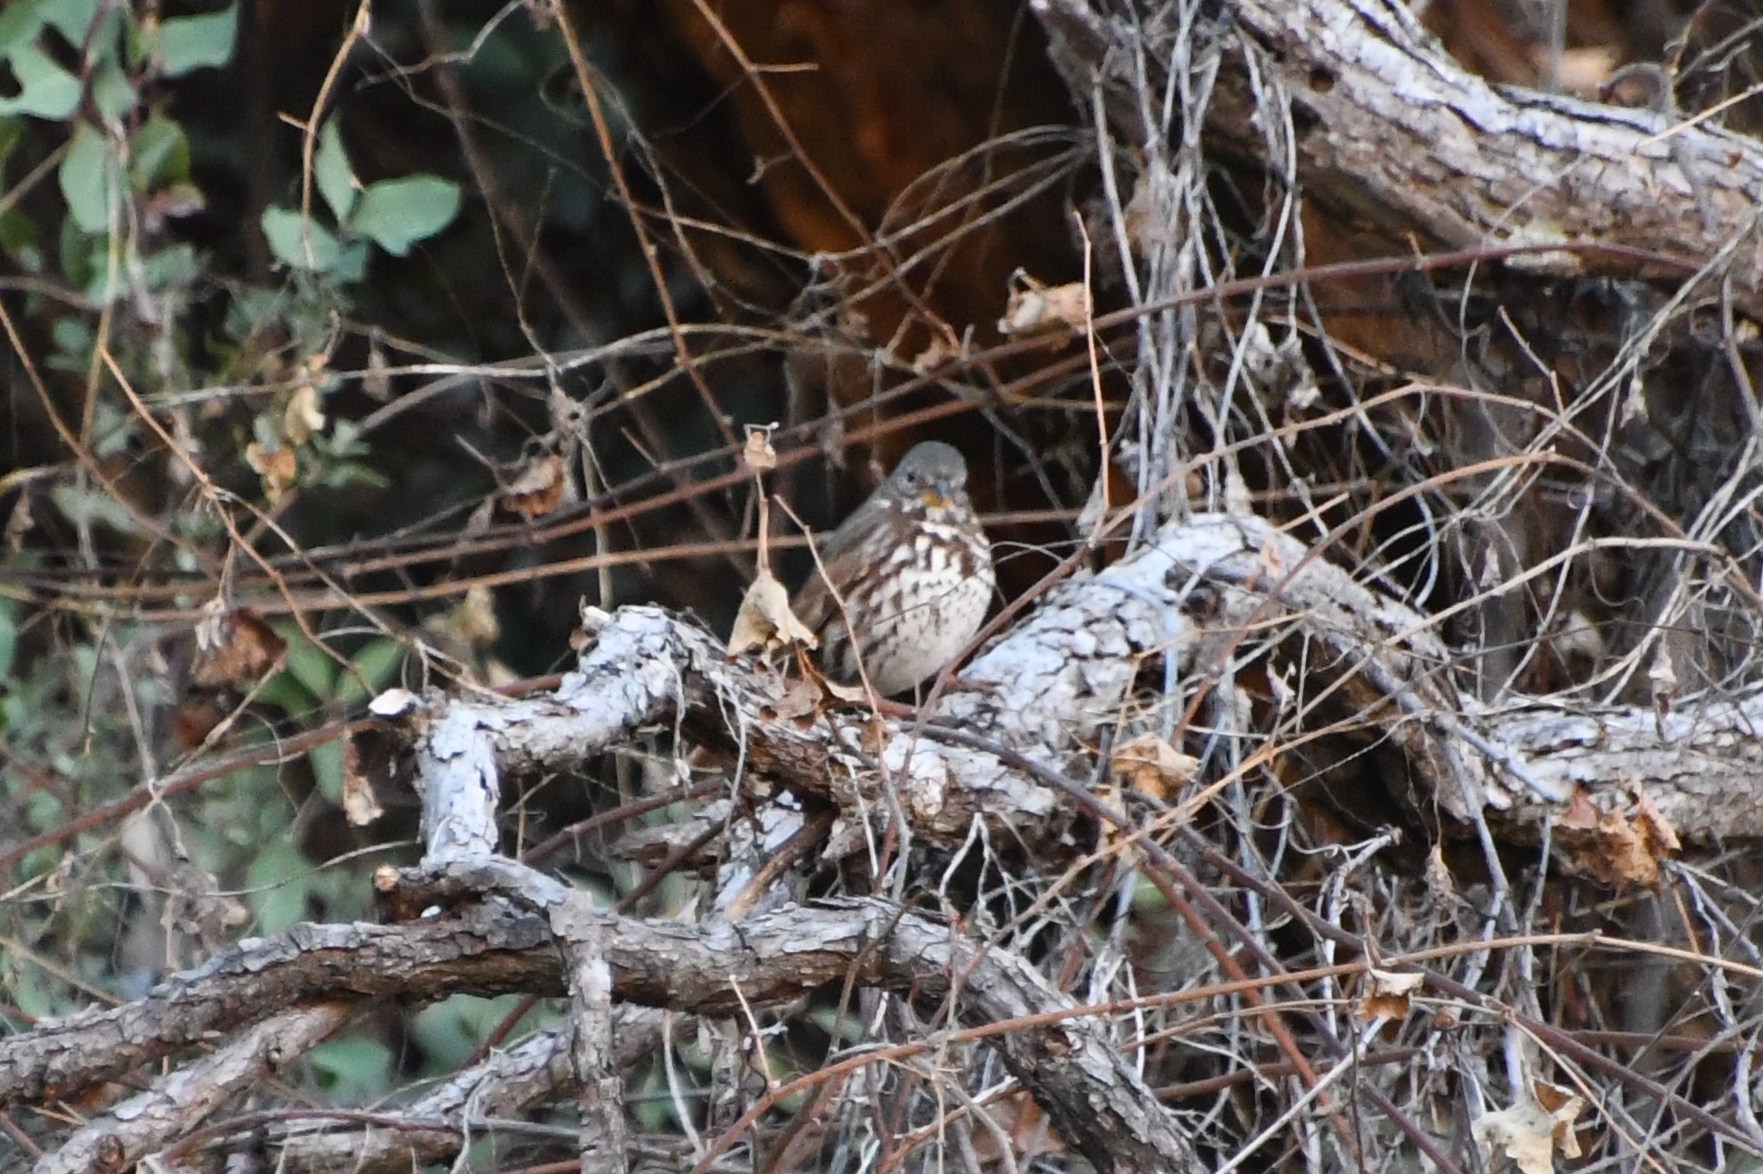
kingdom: Animalia
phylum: Chordata
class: Aves
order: Passeriformes
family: Passerellidae
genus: Passerella
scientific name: Passerella iliaca
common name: Fox sparrow
